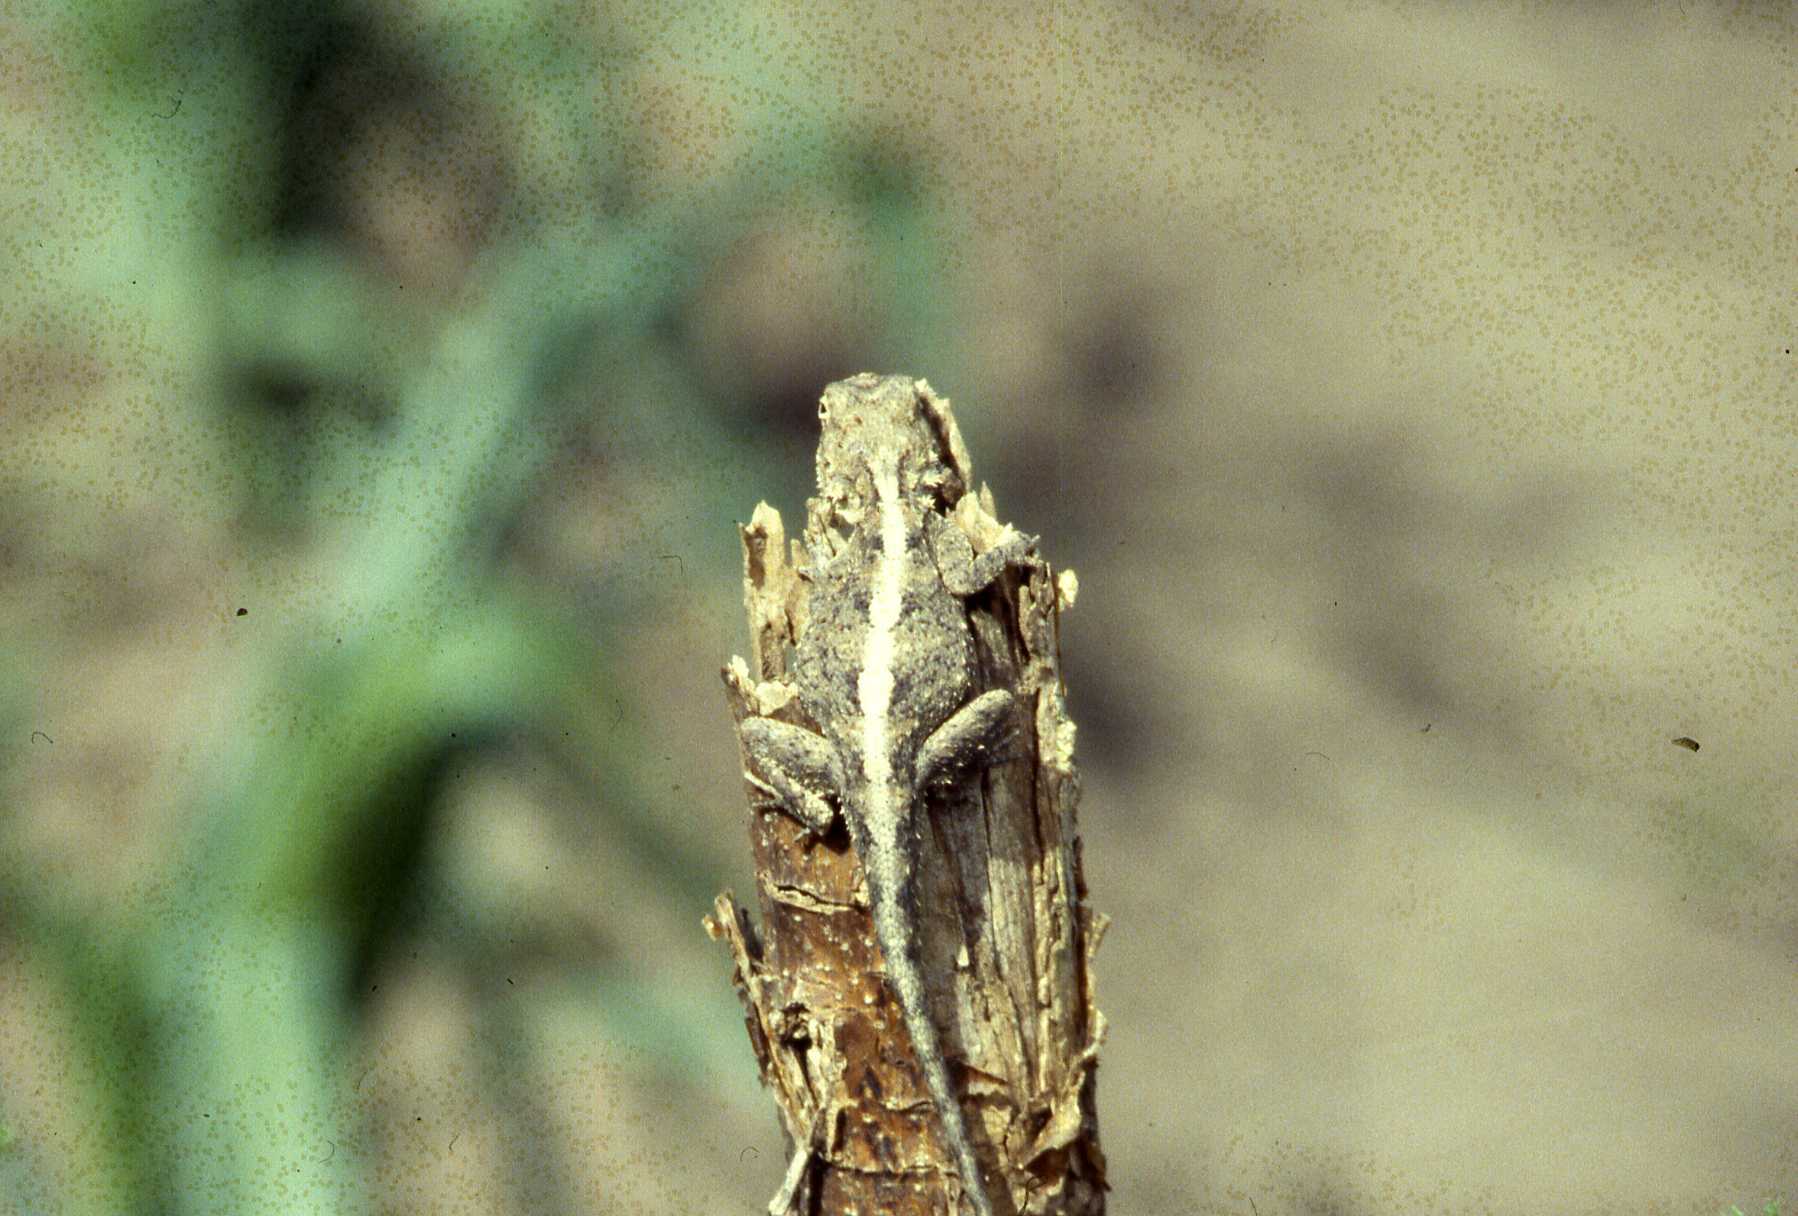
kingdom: Animalia
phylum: Chordata
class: Squamata
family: Agamidae
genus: Agama
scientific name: Agama armata
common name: Northern ground agama
